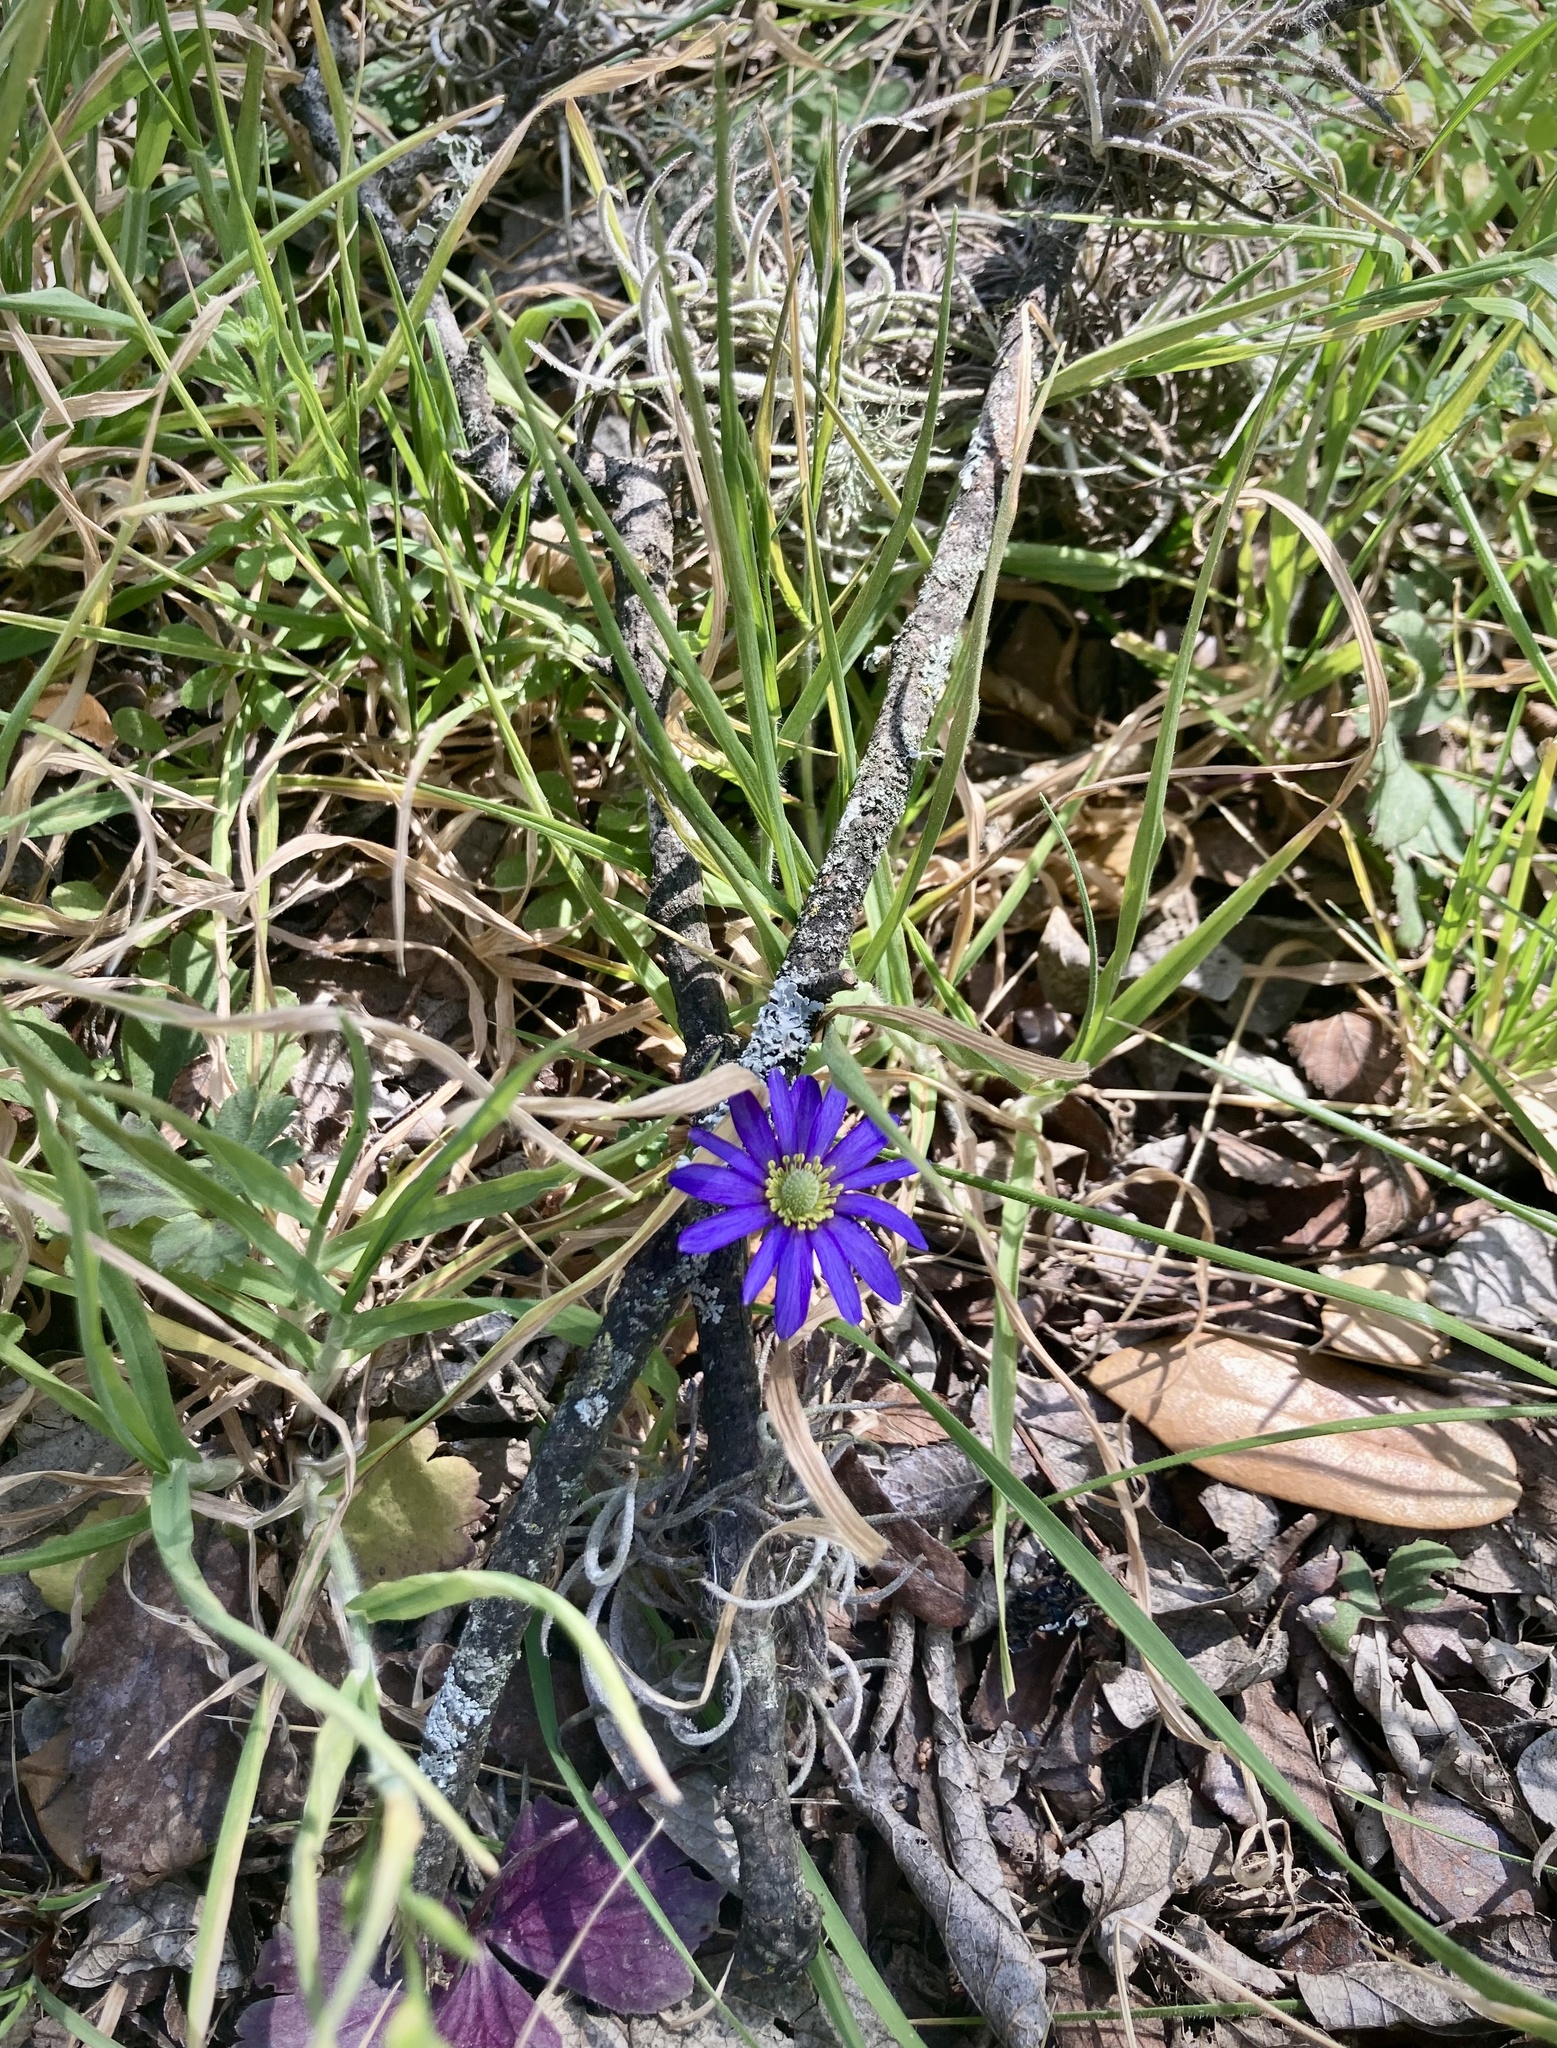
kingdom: Plantae
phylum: Tracheophyta
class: Magnoliopsida
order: Ranunculales
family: Ranunculaceae
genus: Anemone
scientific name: Anemone berlandieri
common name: Ten-petal anemone
